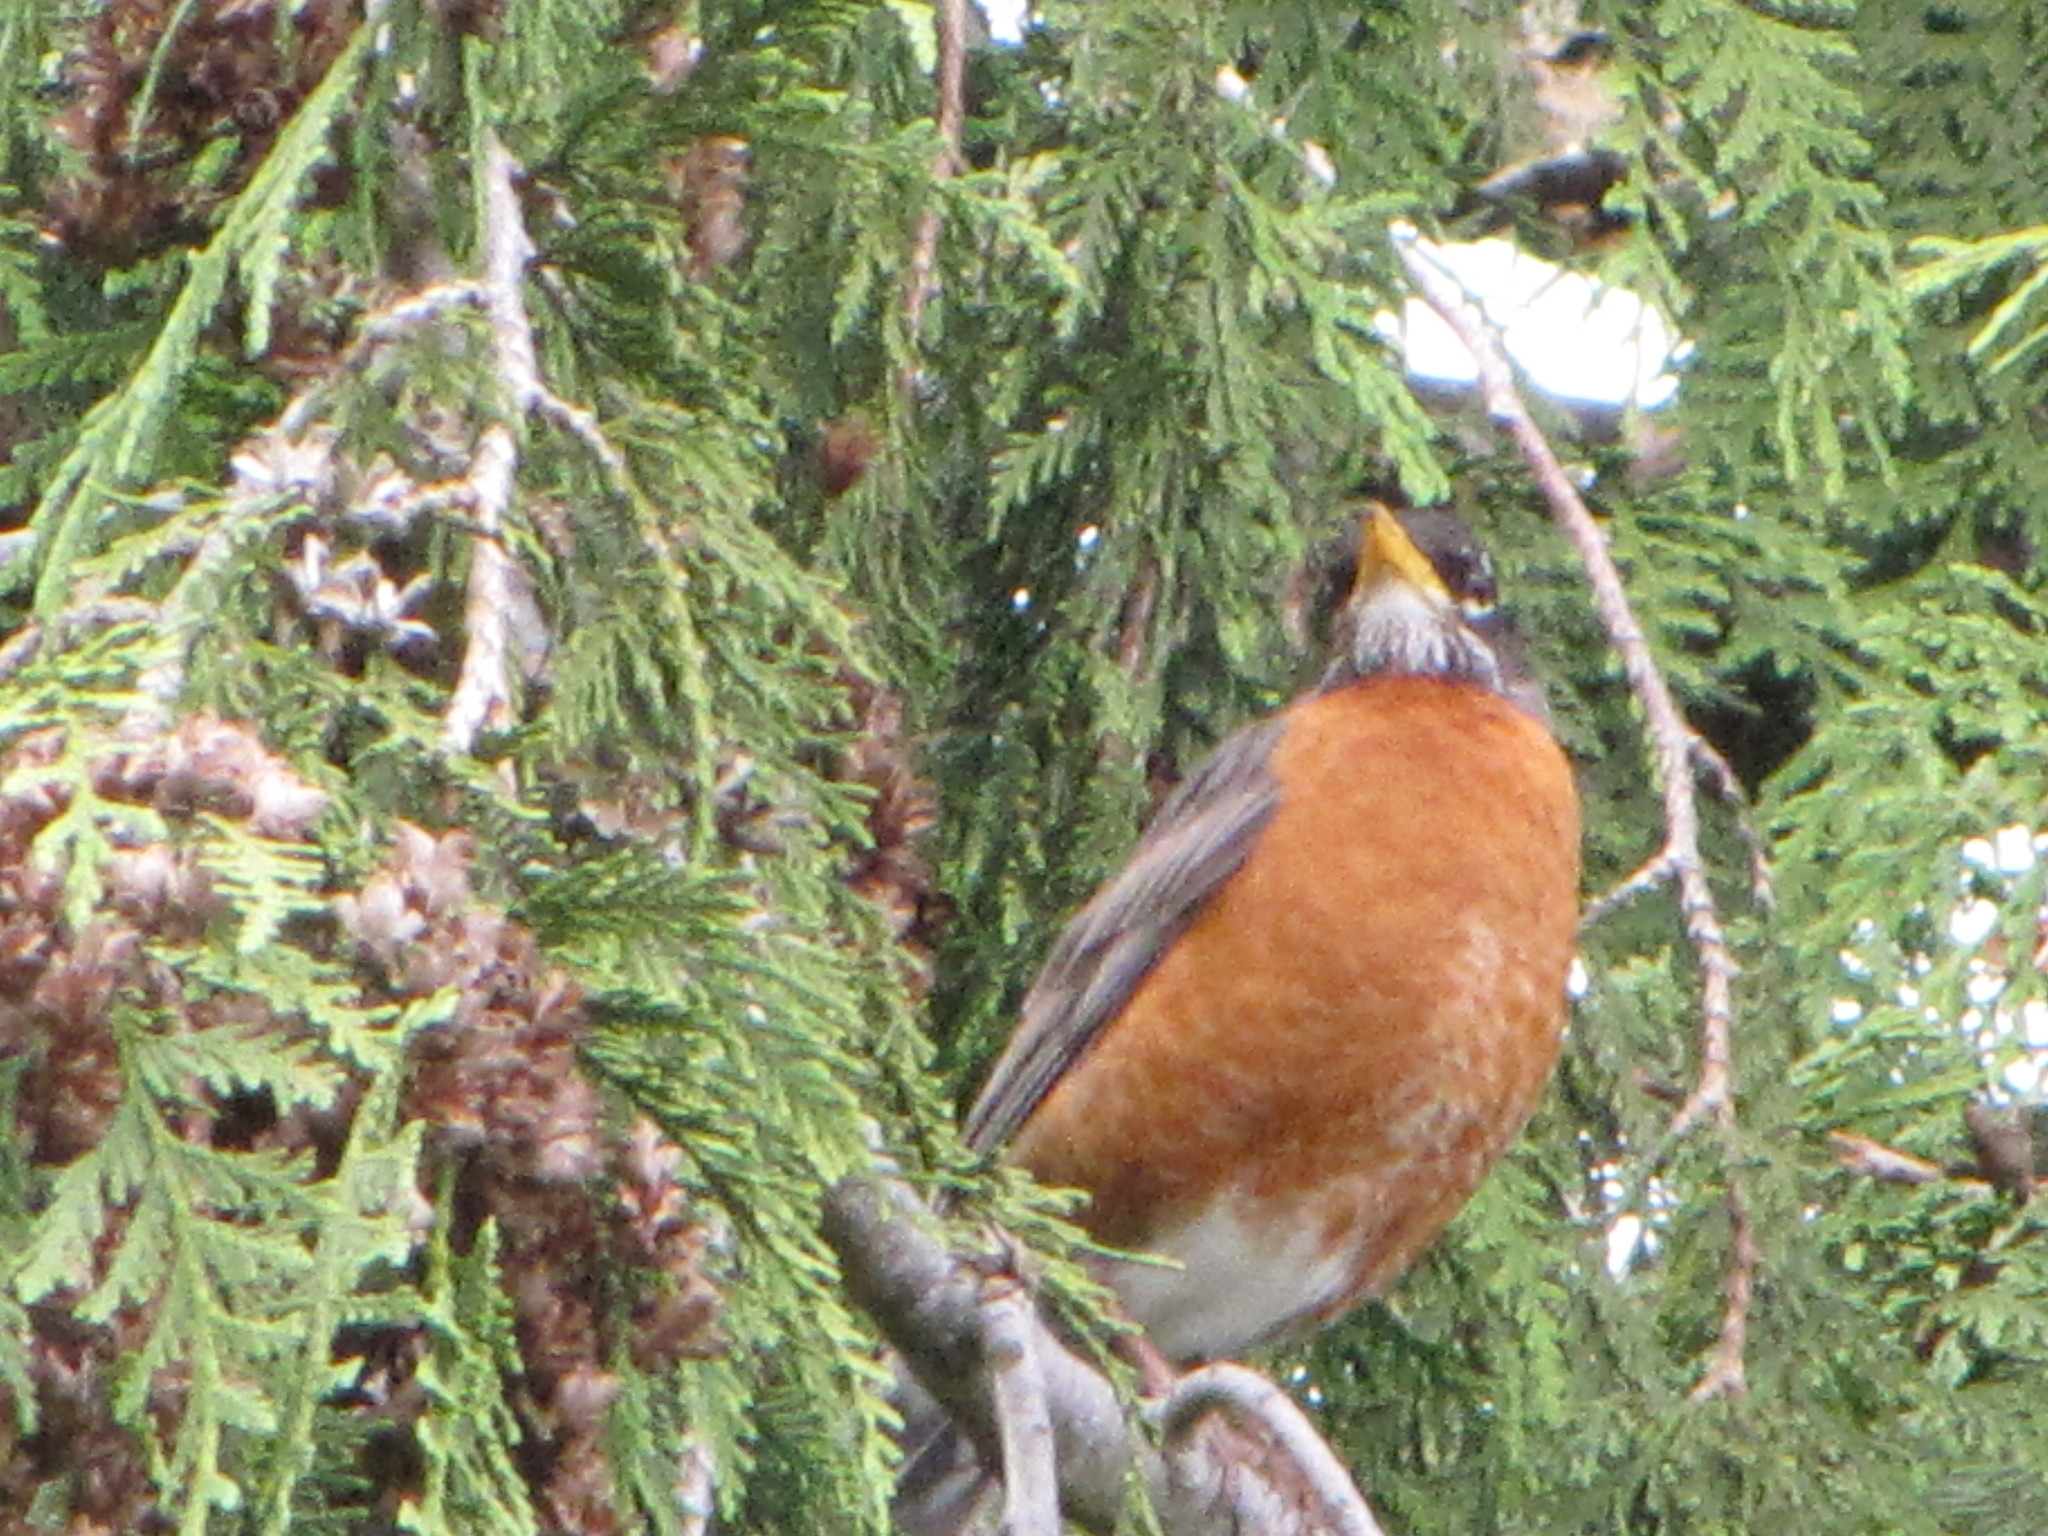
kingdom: Animalia
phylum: Chordata
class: Aves
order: Passeriformes
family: Turdidae
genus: Turdus
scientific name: Turdus migratorius
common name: American robin
